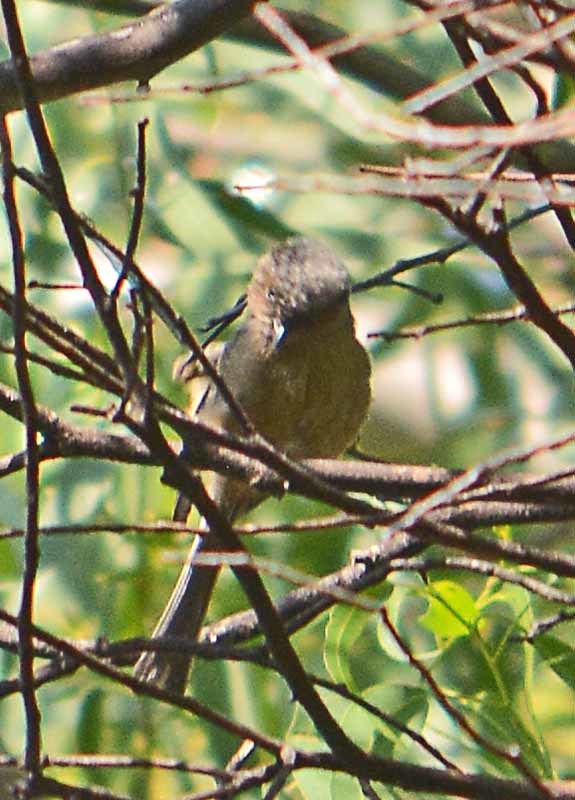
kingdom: Animalia
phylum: Chordata
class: Aves
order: Passeriformes
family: Aegithalidae
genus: Psaltriparus
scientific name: Psaltriparus minimus
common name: American bushtit
